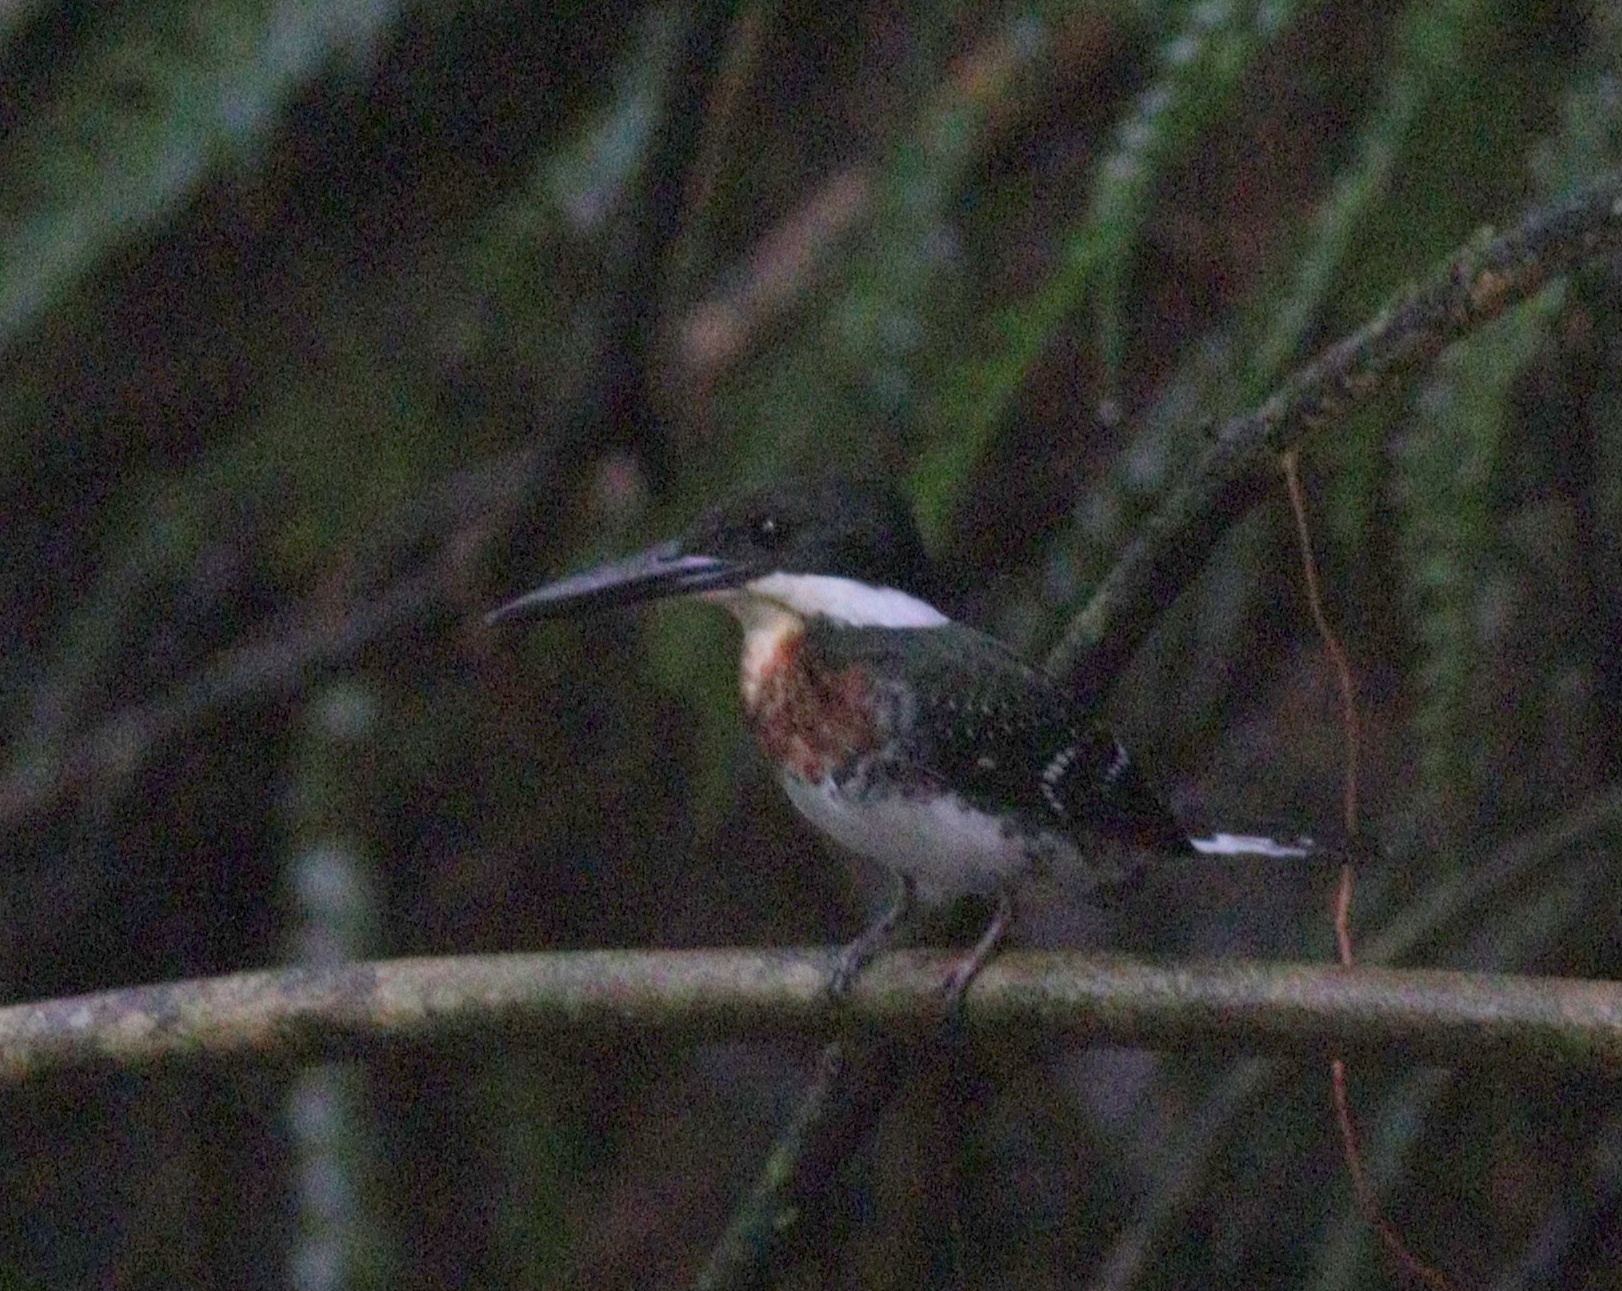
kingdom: Animalia
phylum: Chordata
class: Aves
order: Coraciiformes
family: Alcedinidae
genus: Chloroceryle
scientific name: Chloroceryle americana
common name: Green kingfisher
